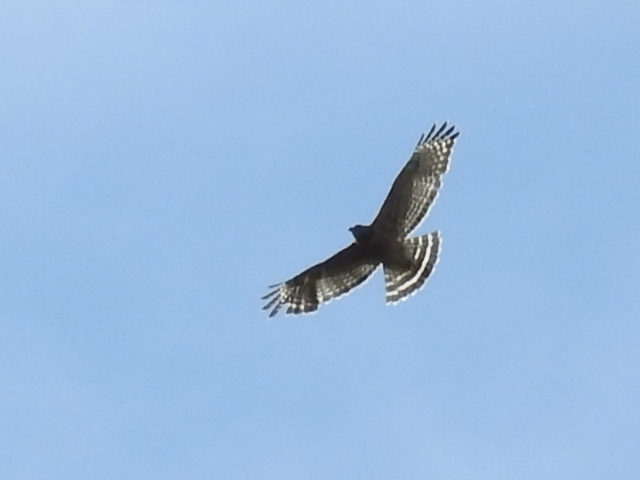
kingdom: Animalia
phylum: Chordata
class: Aves
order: Accipitriformes
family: Accipitridae
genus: Buteo
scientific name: Buteo lineatus
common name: Red-shouldered hawk
